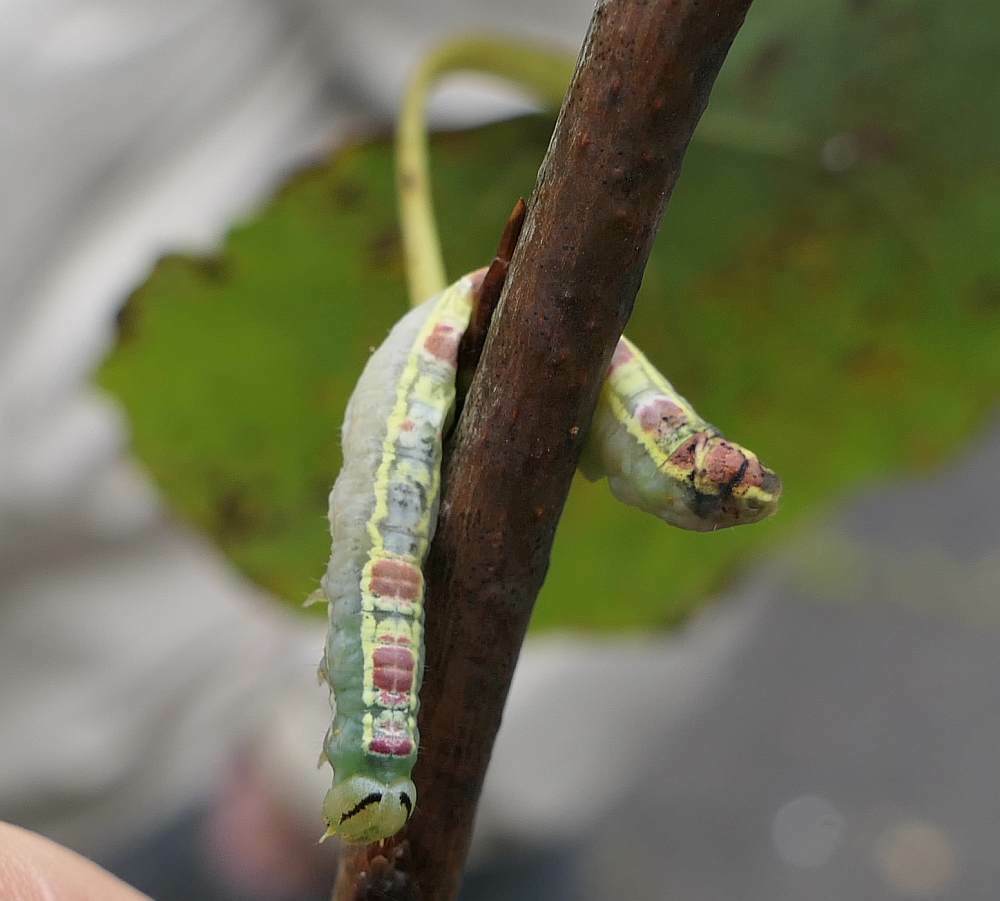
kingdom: Animalia
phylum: Arthropoda
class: Insecta
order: Lepidoptera
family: Notodontidae
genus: Gluphisia
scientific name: Gluphisia septentrionis
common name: Common gluphisia
